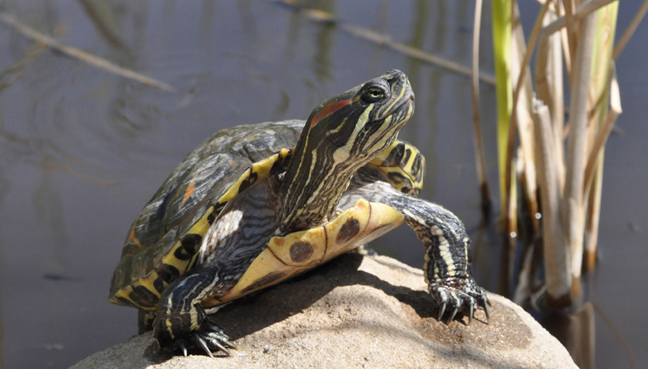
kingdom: Animalia
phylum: Chordata
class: Testudines
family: Emydidae
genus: Trachemys
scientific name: Trachemys scripta
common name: Slider
